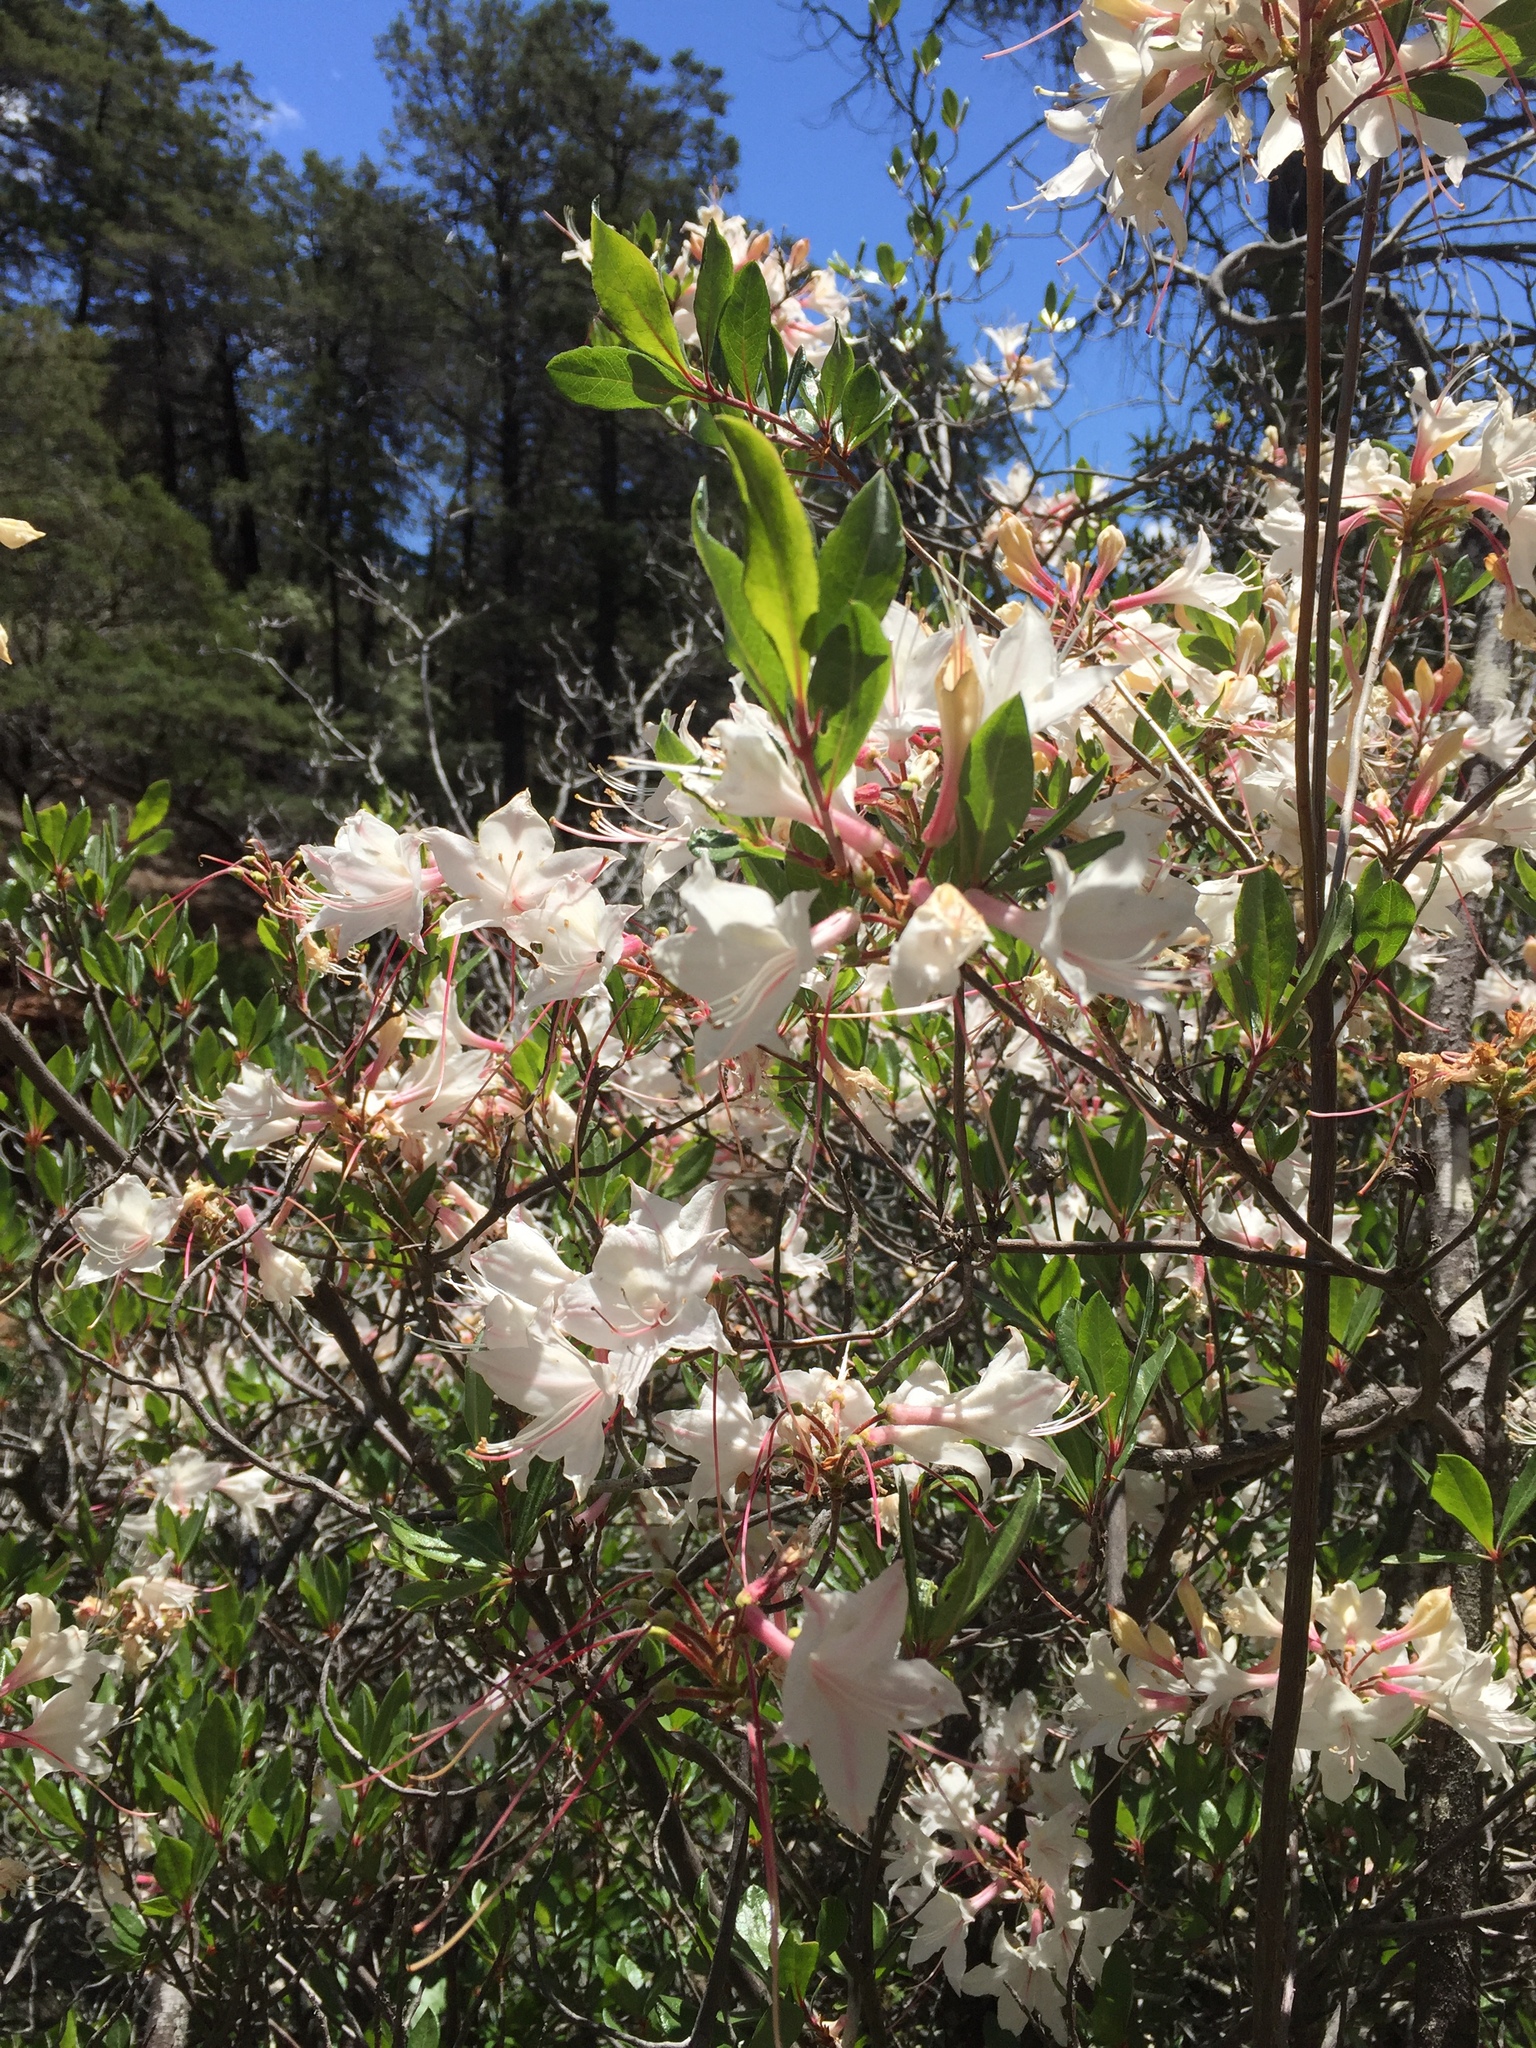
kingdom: Plantae
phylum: Tracheophyta
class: Magnoliopsida
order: Ericales
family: Ericaceae
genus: Rhododendron
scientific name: Rhododendron occidentale
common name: Western azalea
